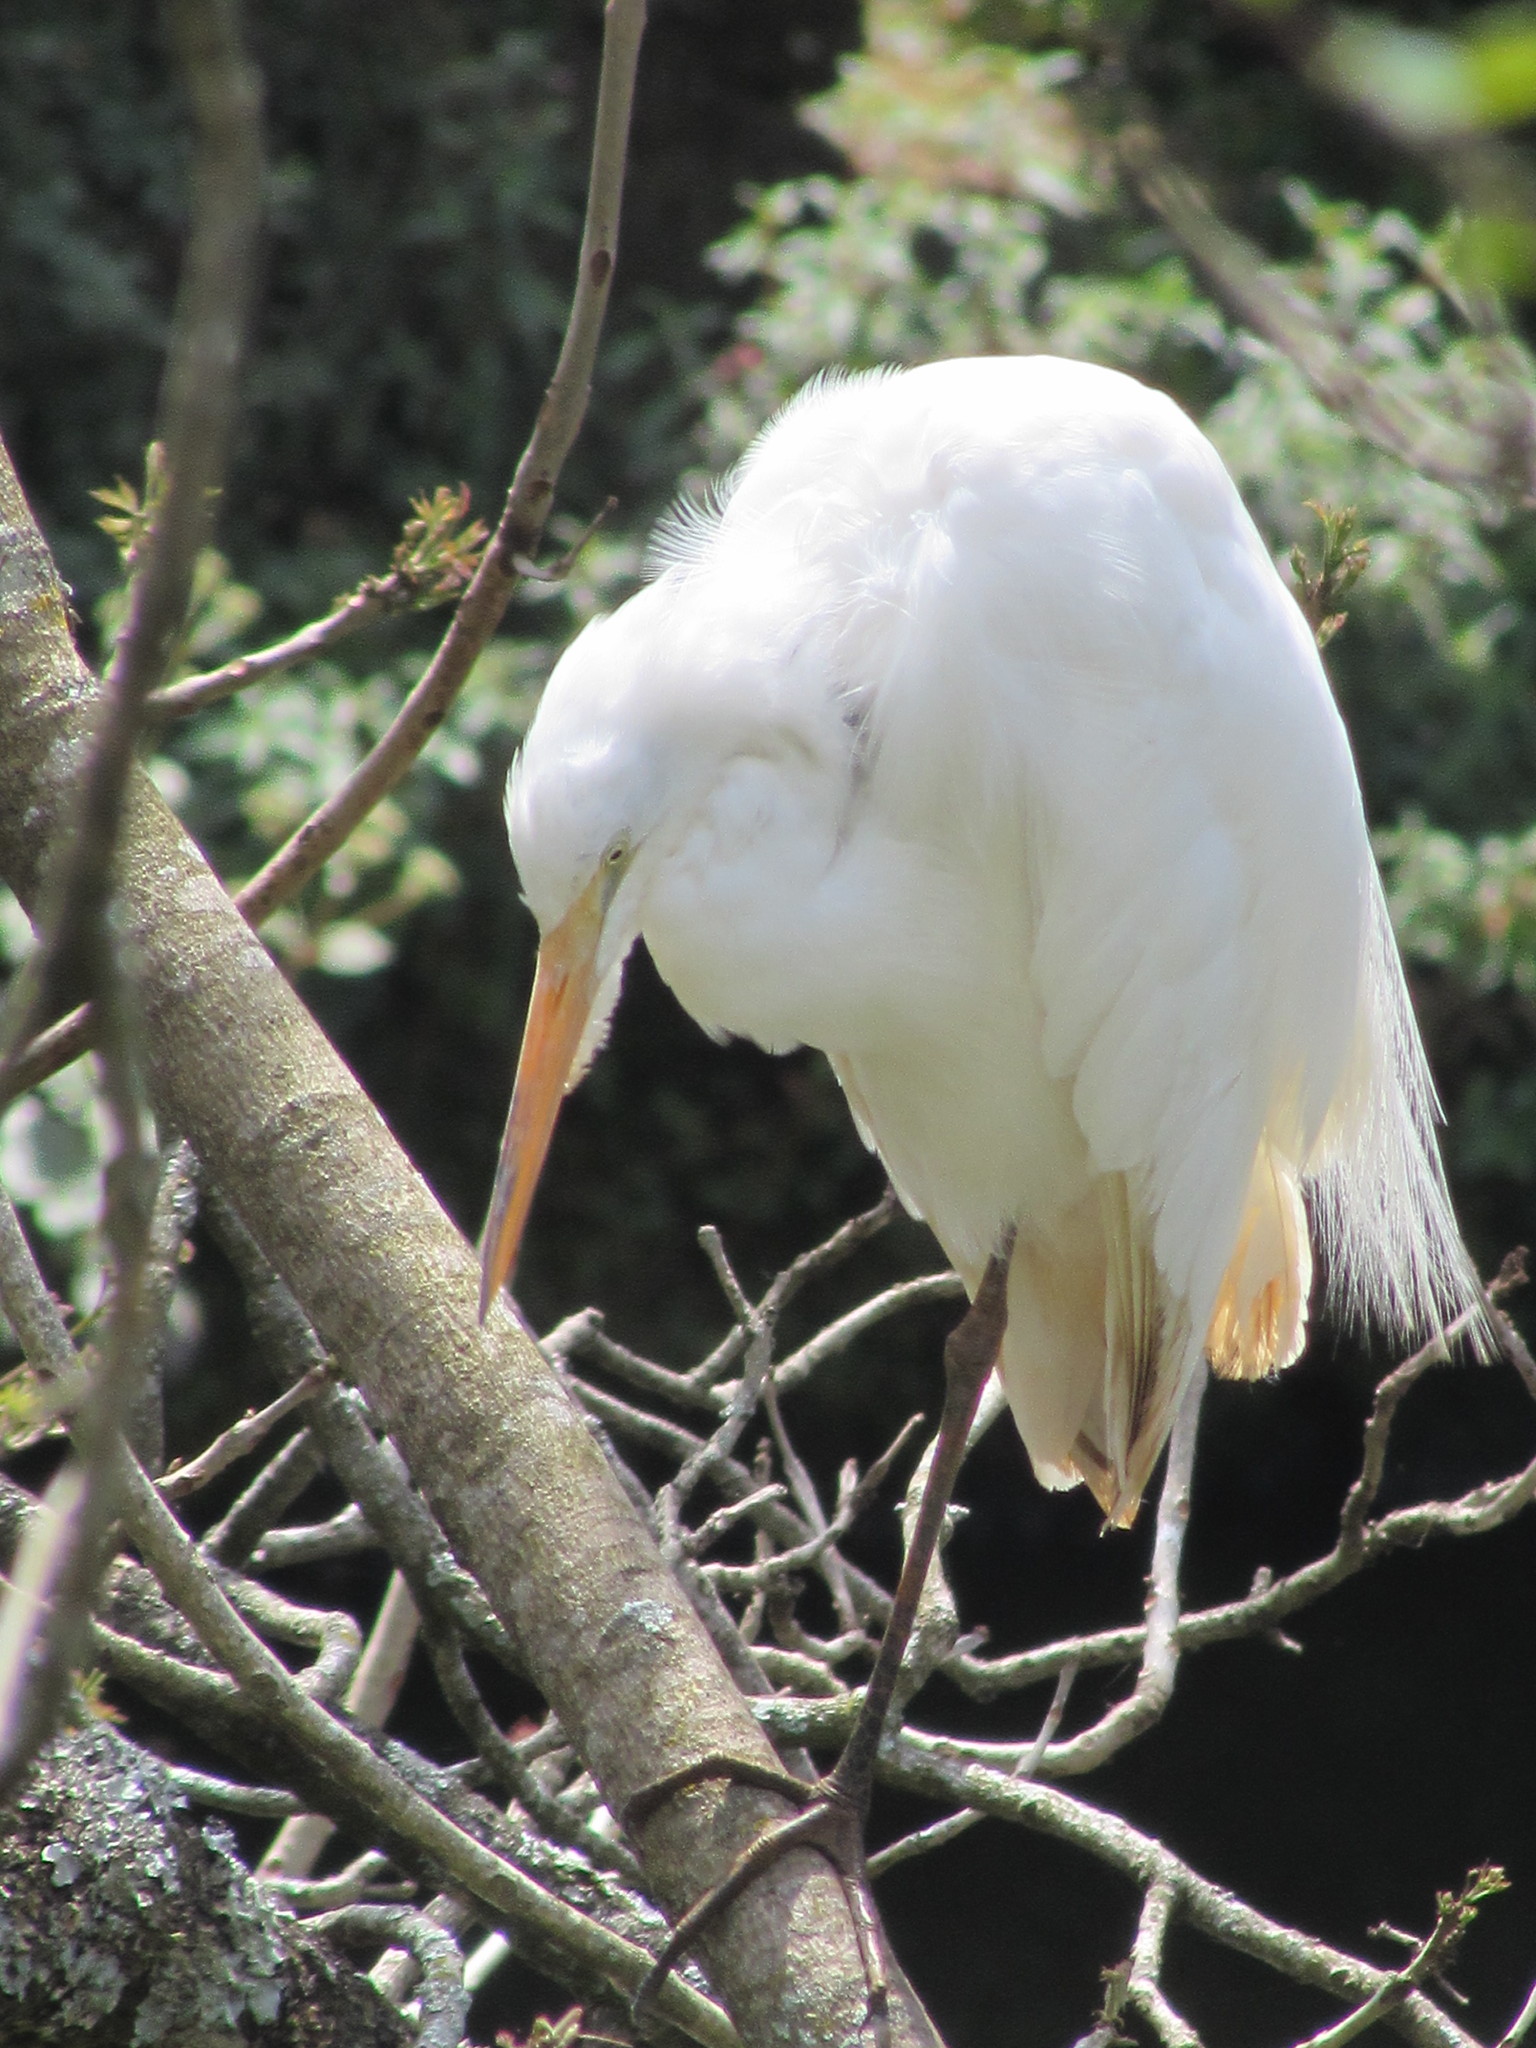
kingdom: Animalia
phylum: Chordata
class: Aves
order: Pelecaniformes
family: Ardeidae
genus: Ardea
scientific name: Ardea alba
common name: Great egret
